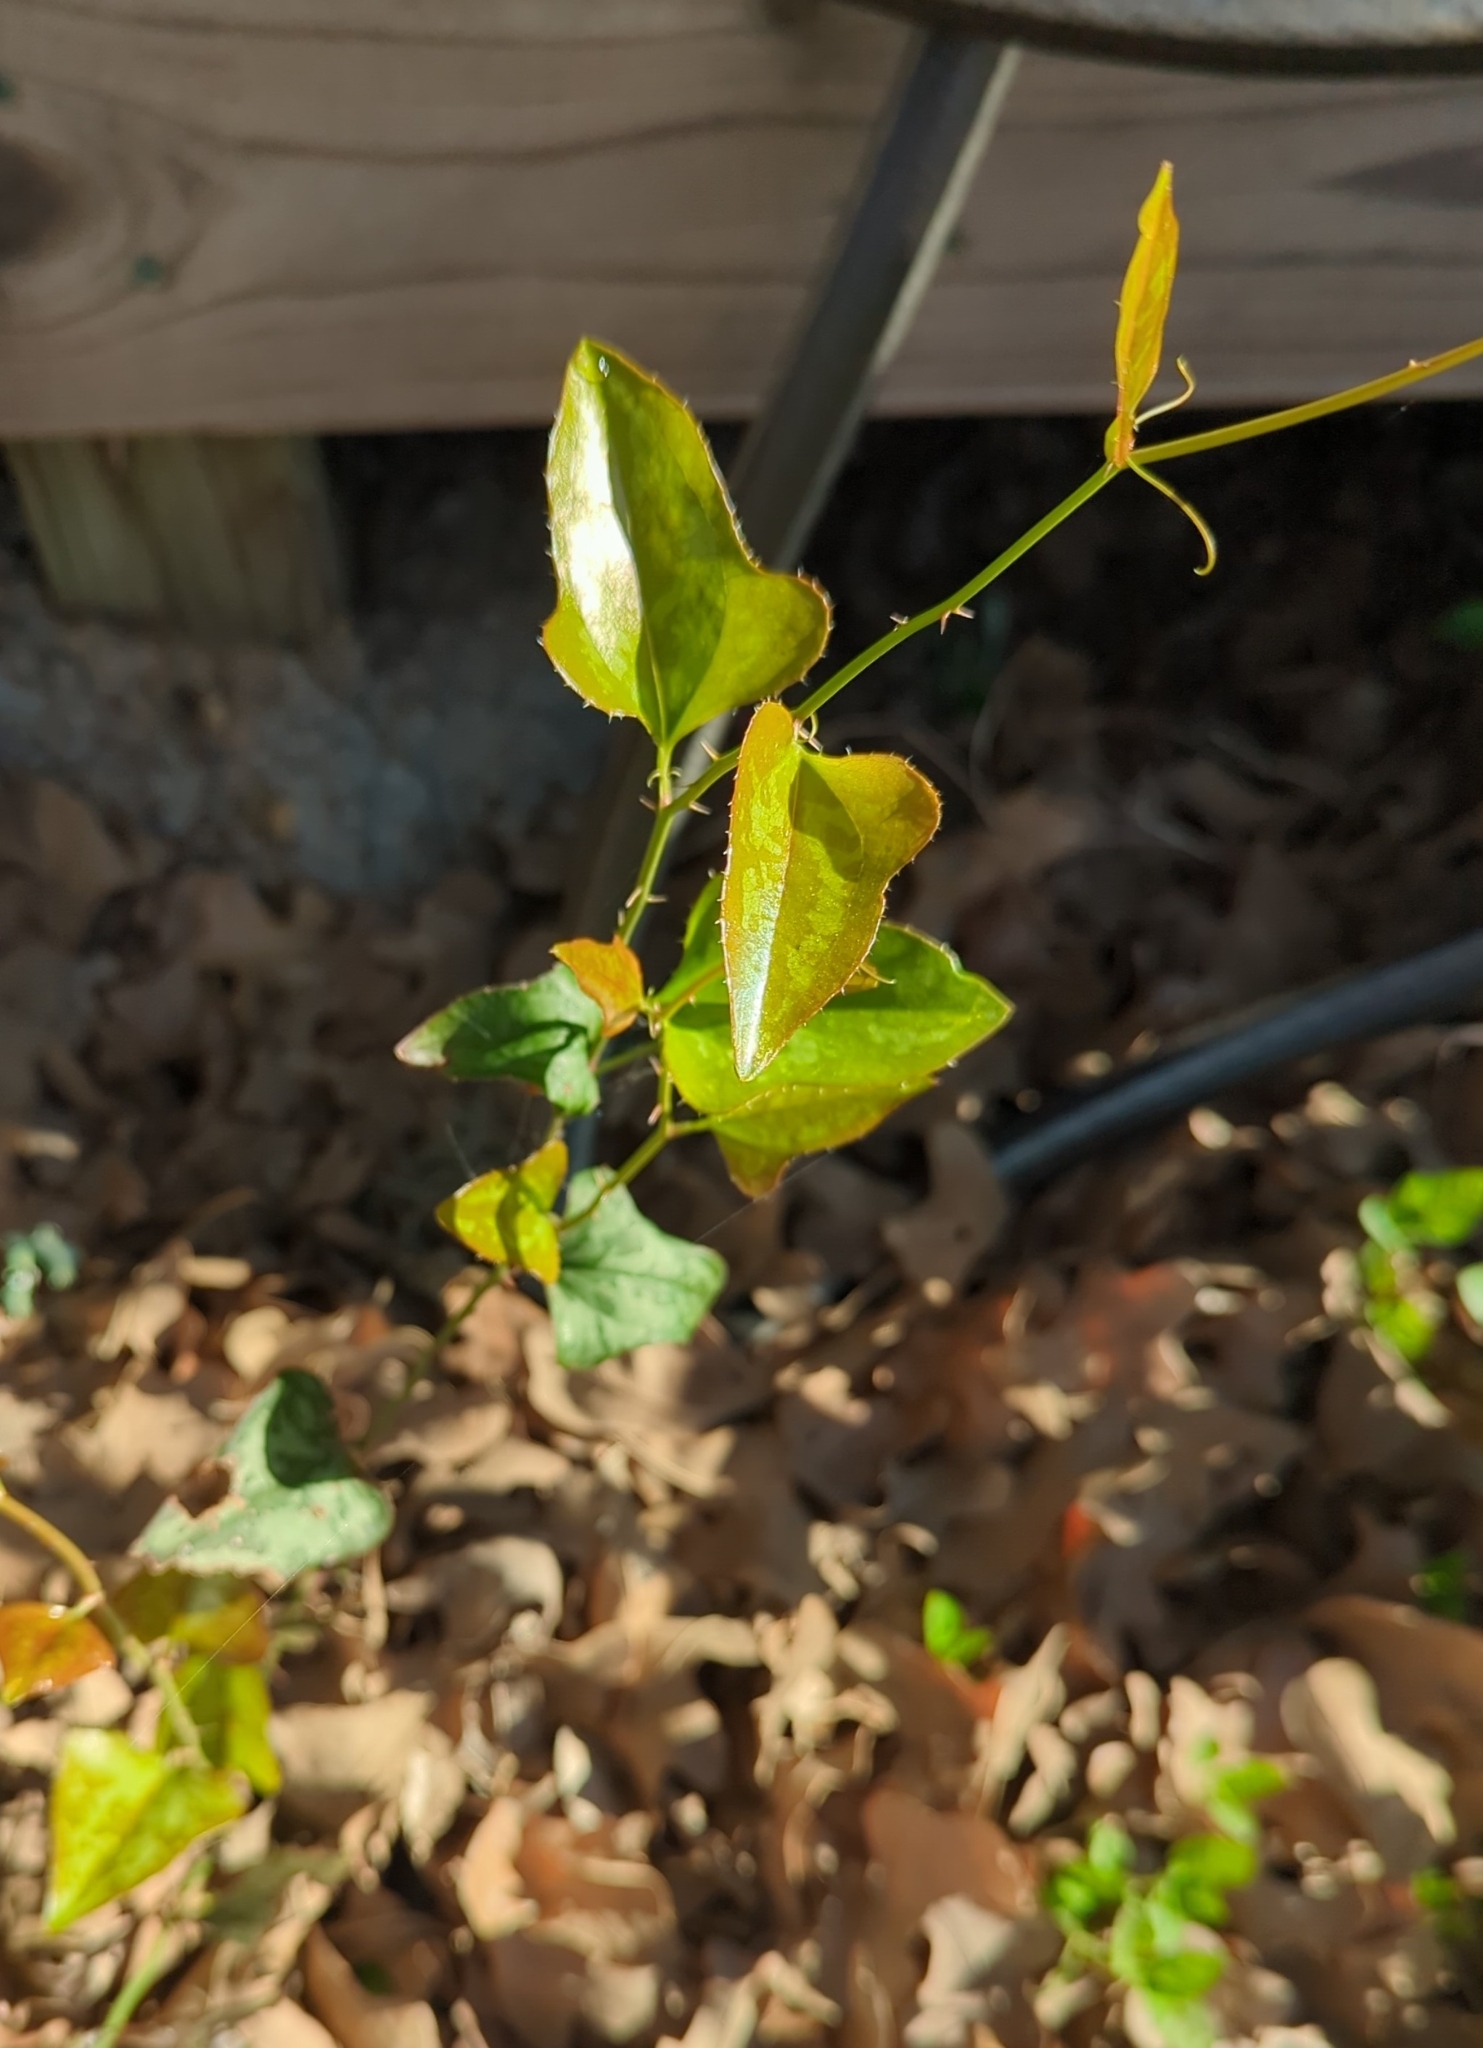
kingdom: Plantae
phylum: Tracheophyta
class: Liliopsida
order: Liliales
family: Smilacaceae
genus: Smilax
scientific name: Smilax bona-nox
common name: Catbrier
